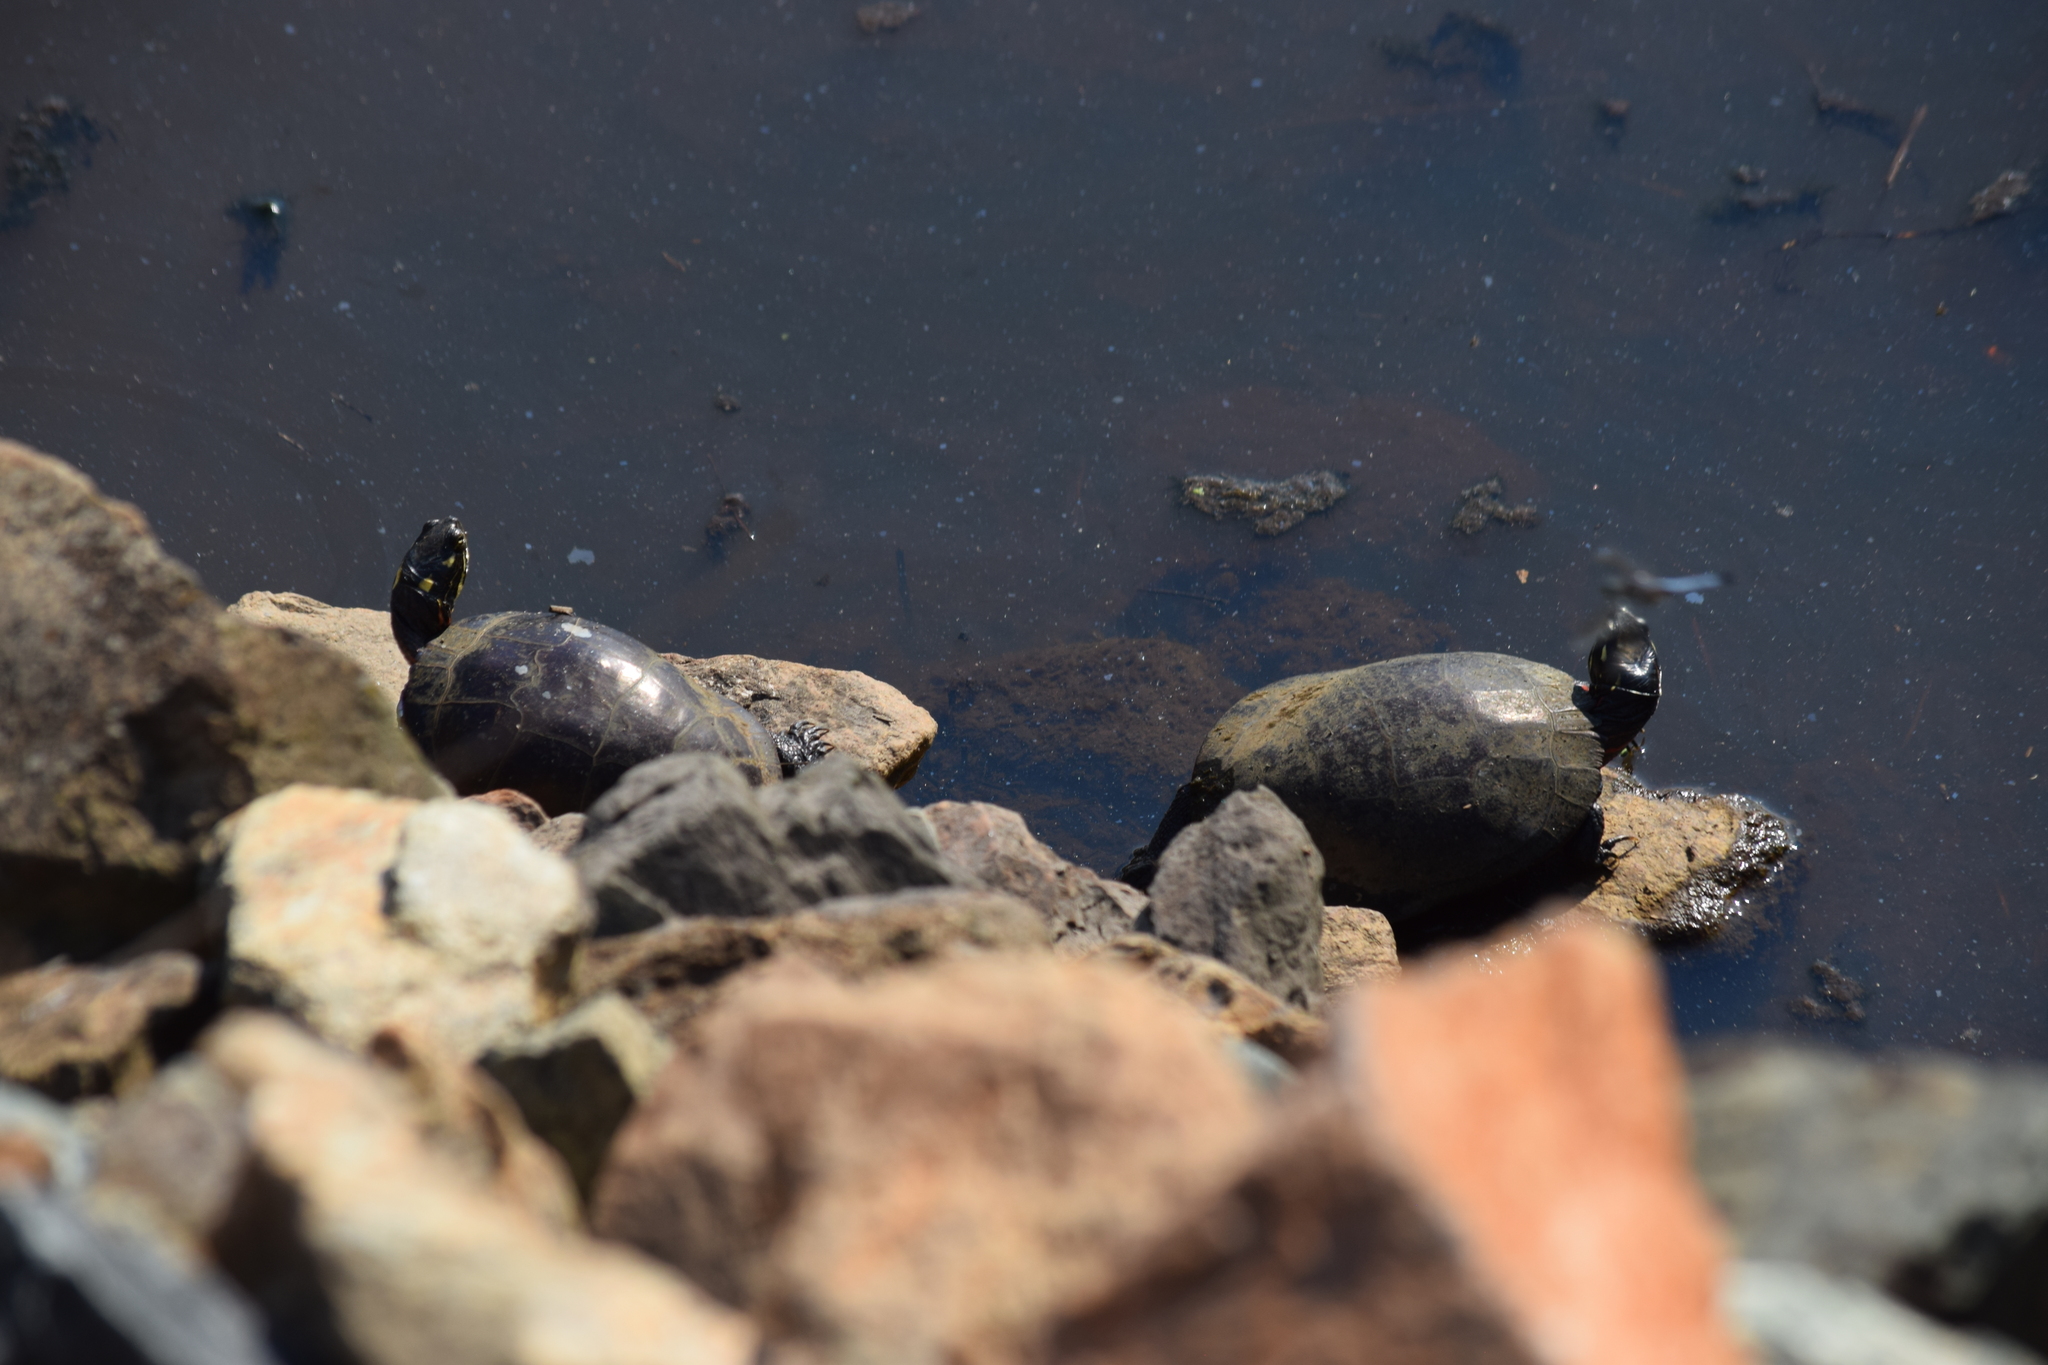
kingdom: Animalia
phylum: Chordata
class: Testudines
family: Emydidae
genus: Chrysemys
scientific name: Chrysemys picta
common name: Painted turtle
